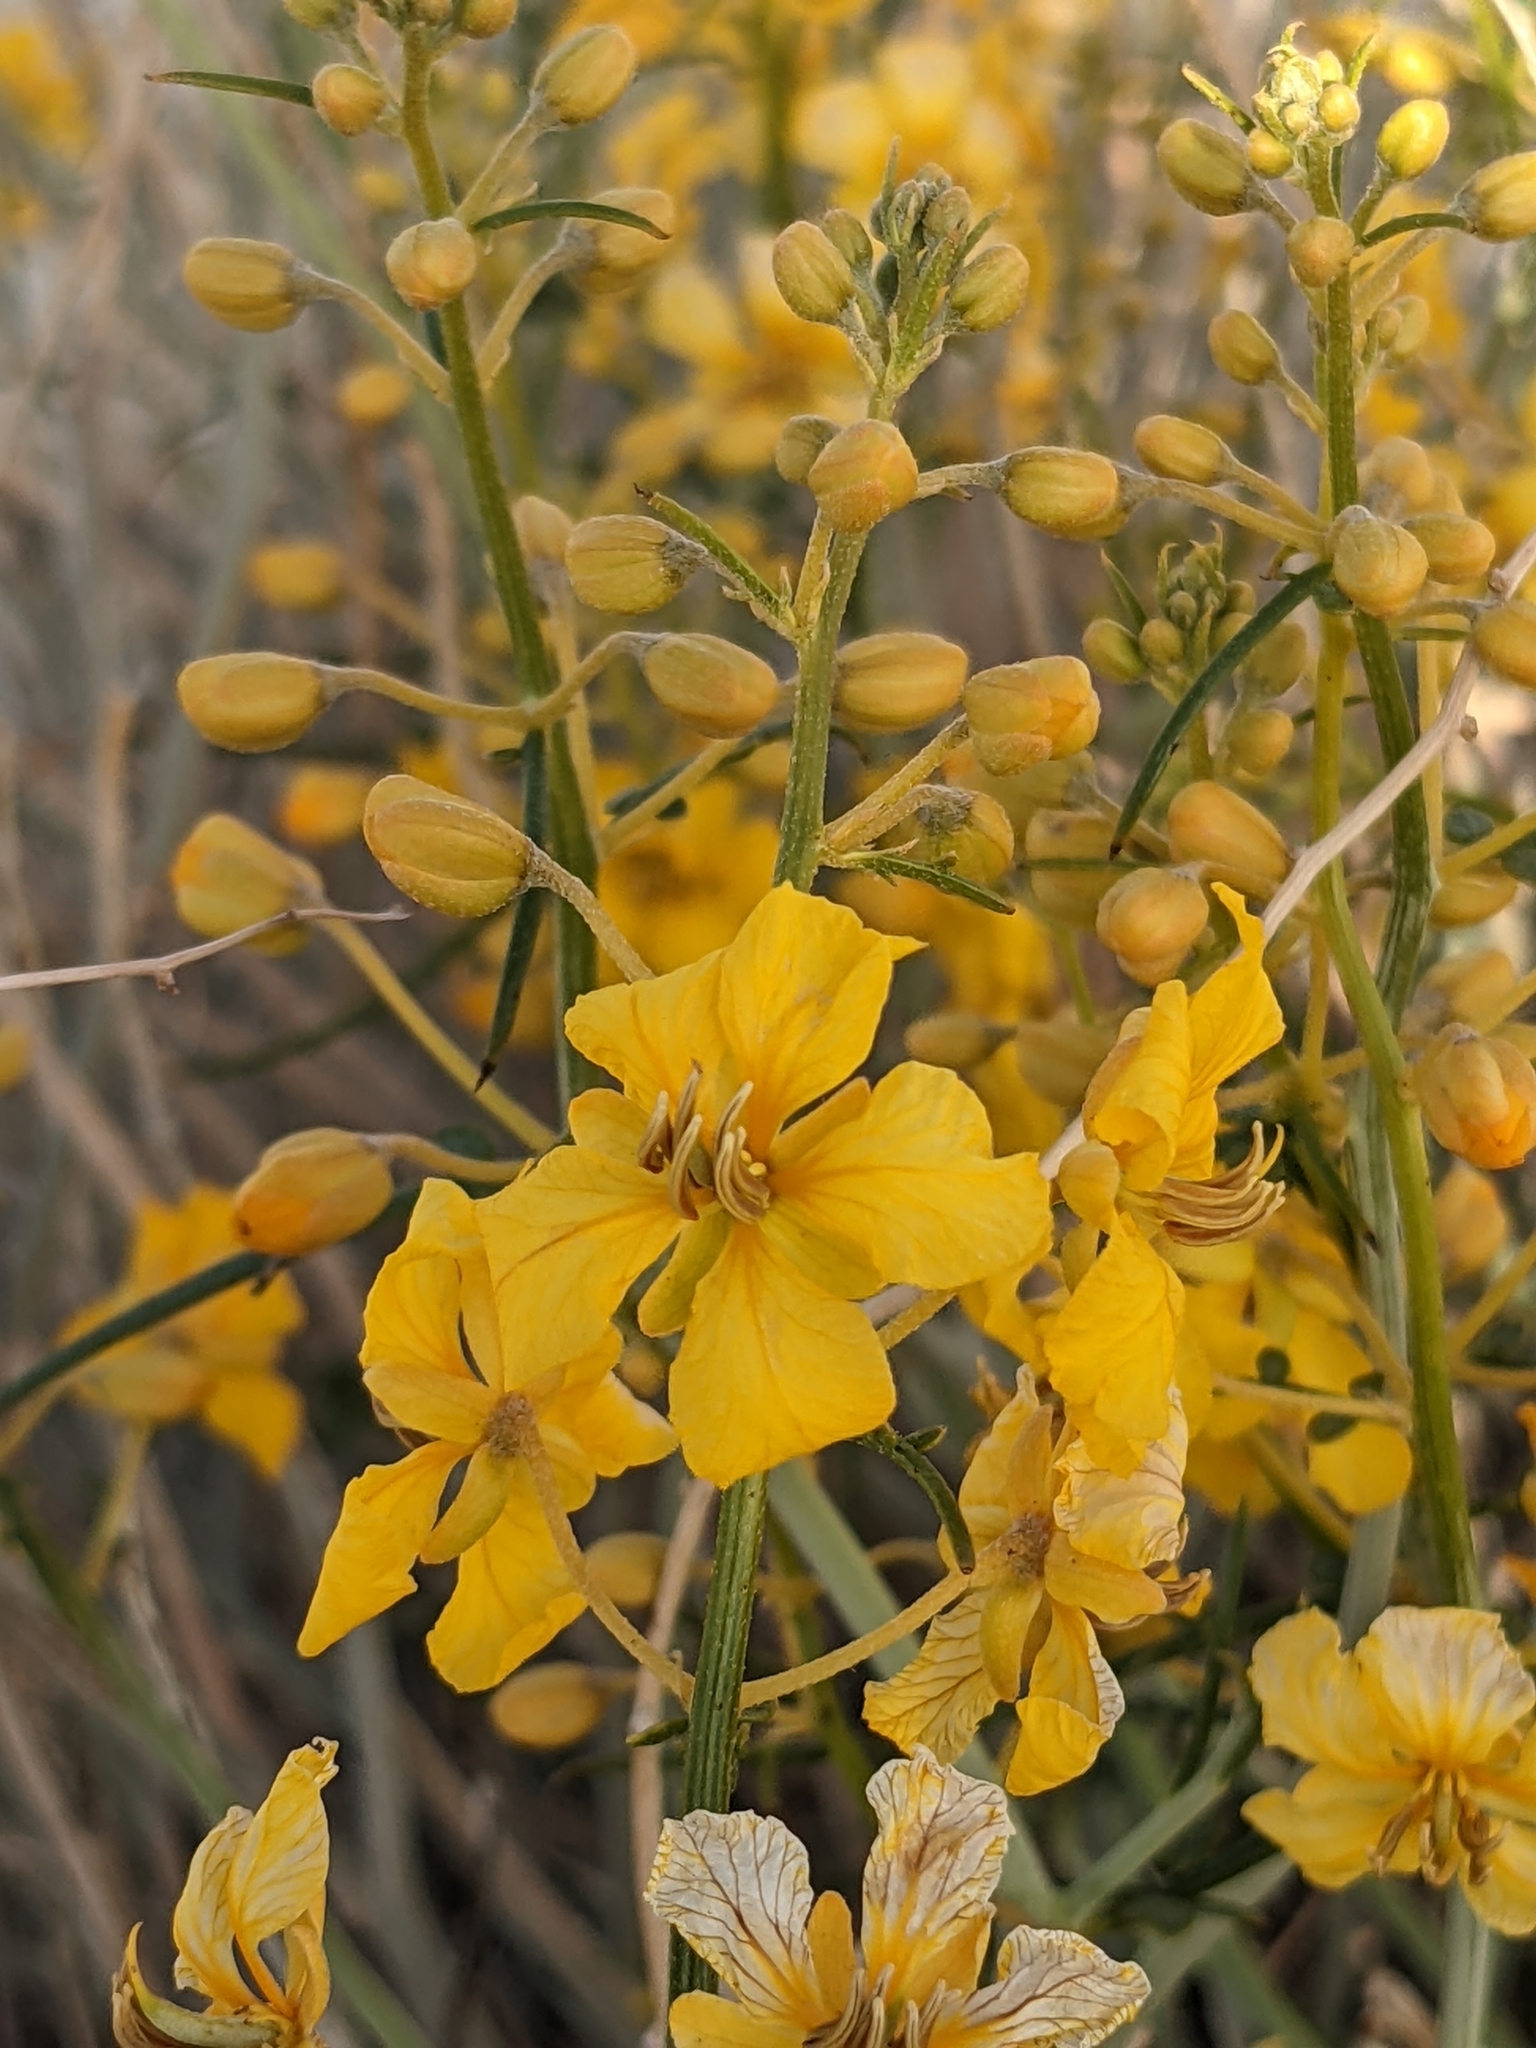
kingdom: Plantae
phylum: Tracheophyta
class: Magnoliopsida
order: Fabales
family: Fabaceae
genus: Senna
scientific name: Senna armata
